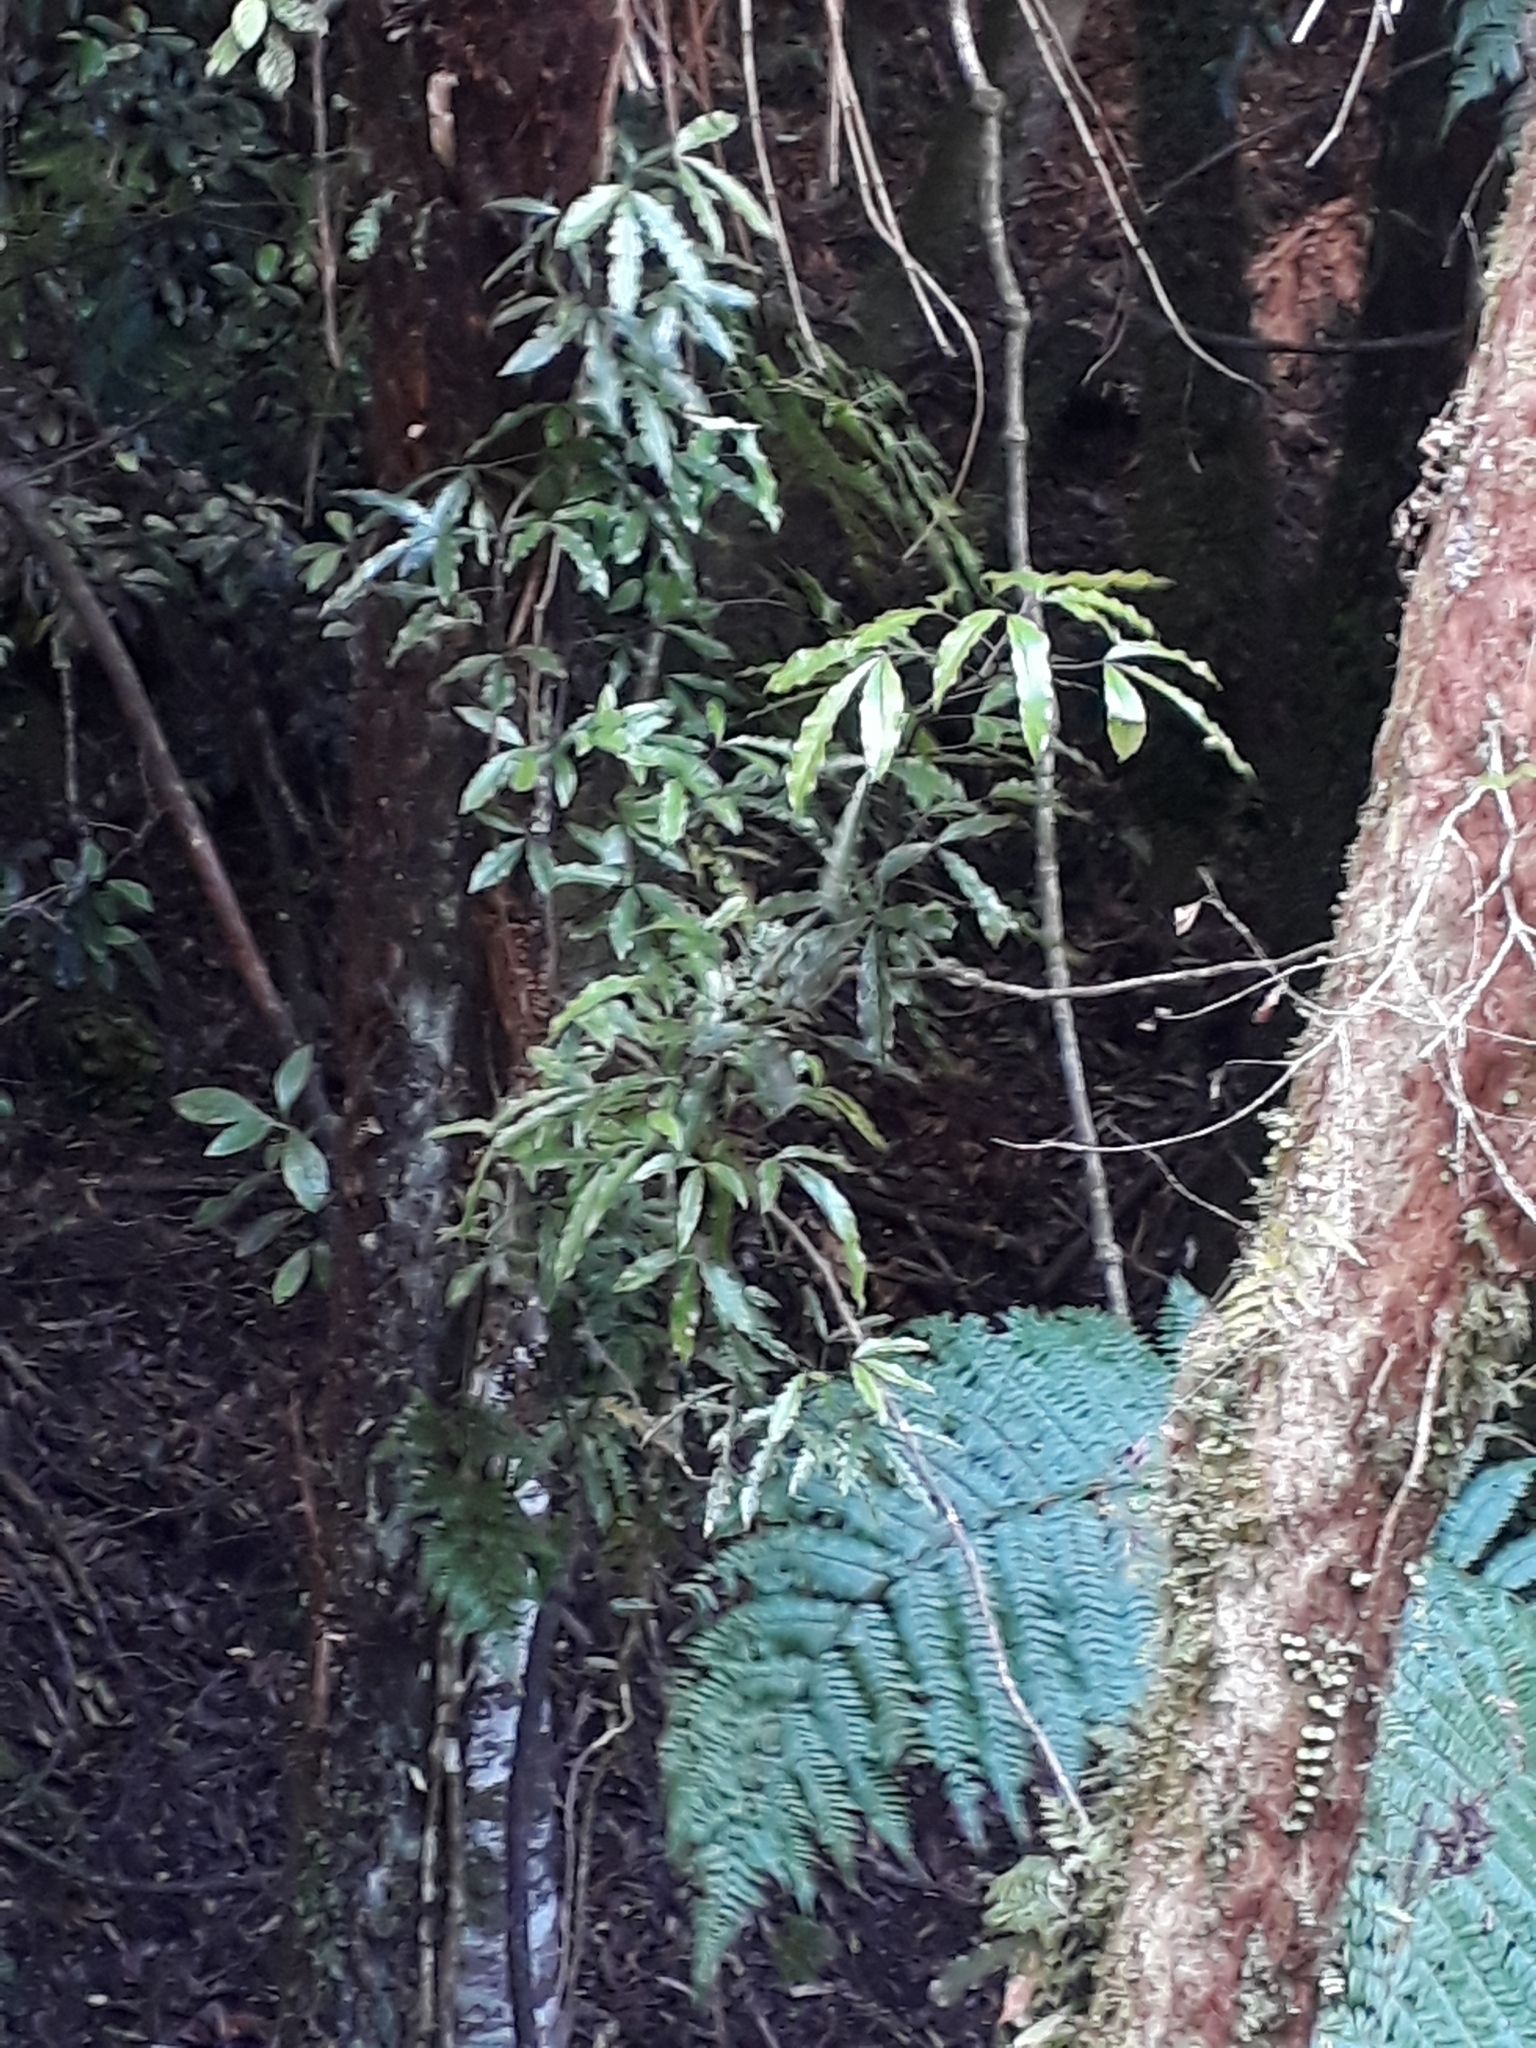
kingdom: Plantae
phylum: Tracheophyta
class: Magnoliopsida
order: Apiales
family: Araliaceae
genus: Raukaua
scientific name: Raukaua edgerleyi
